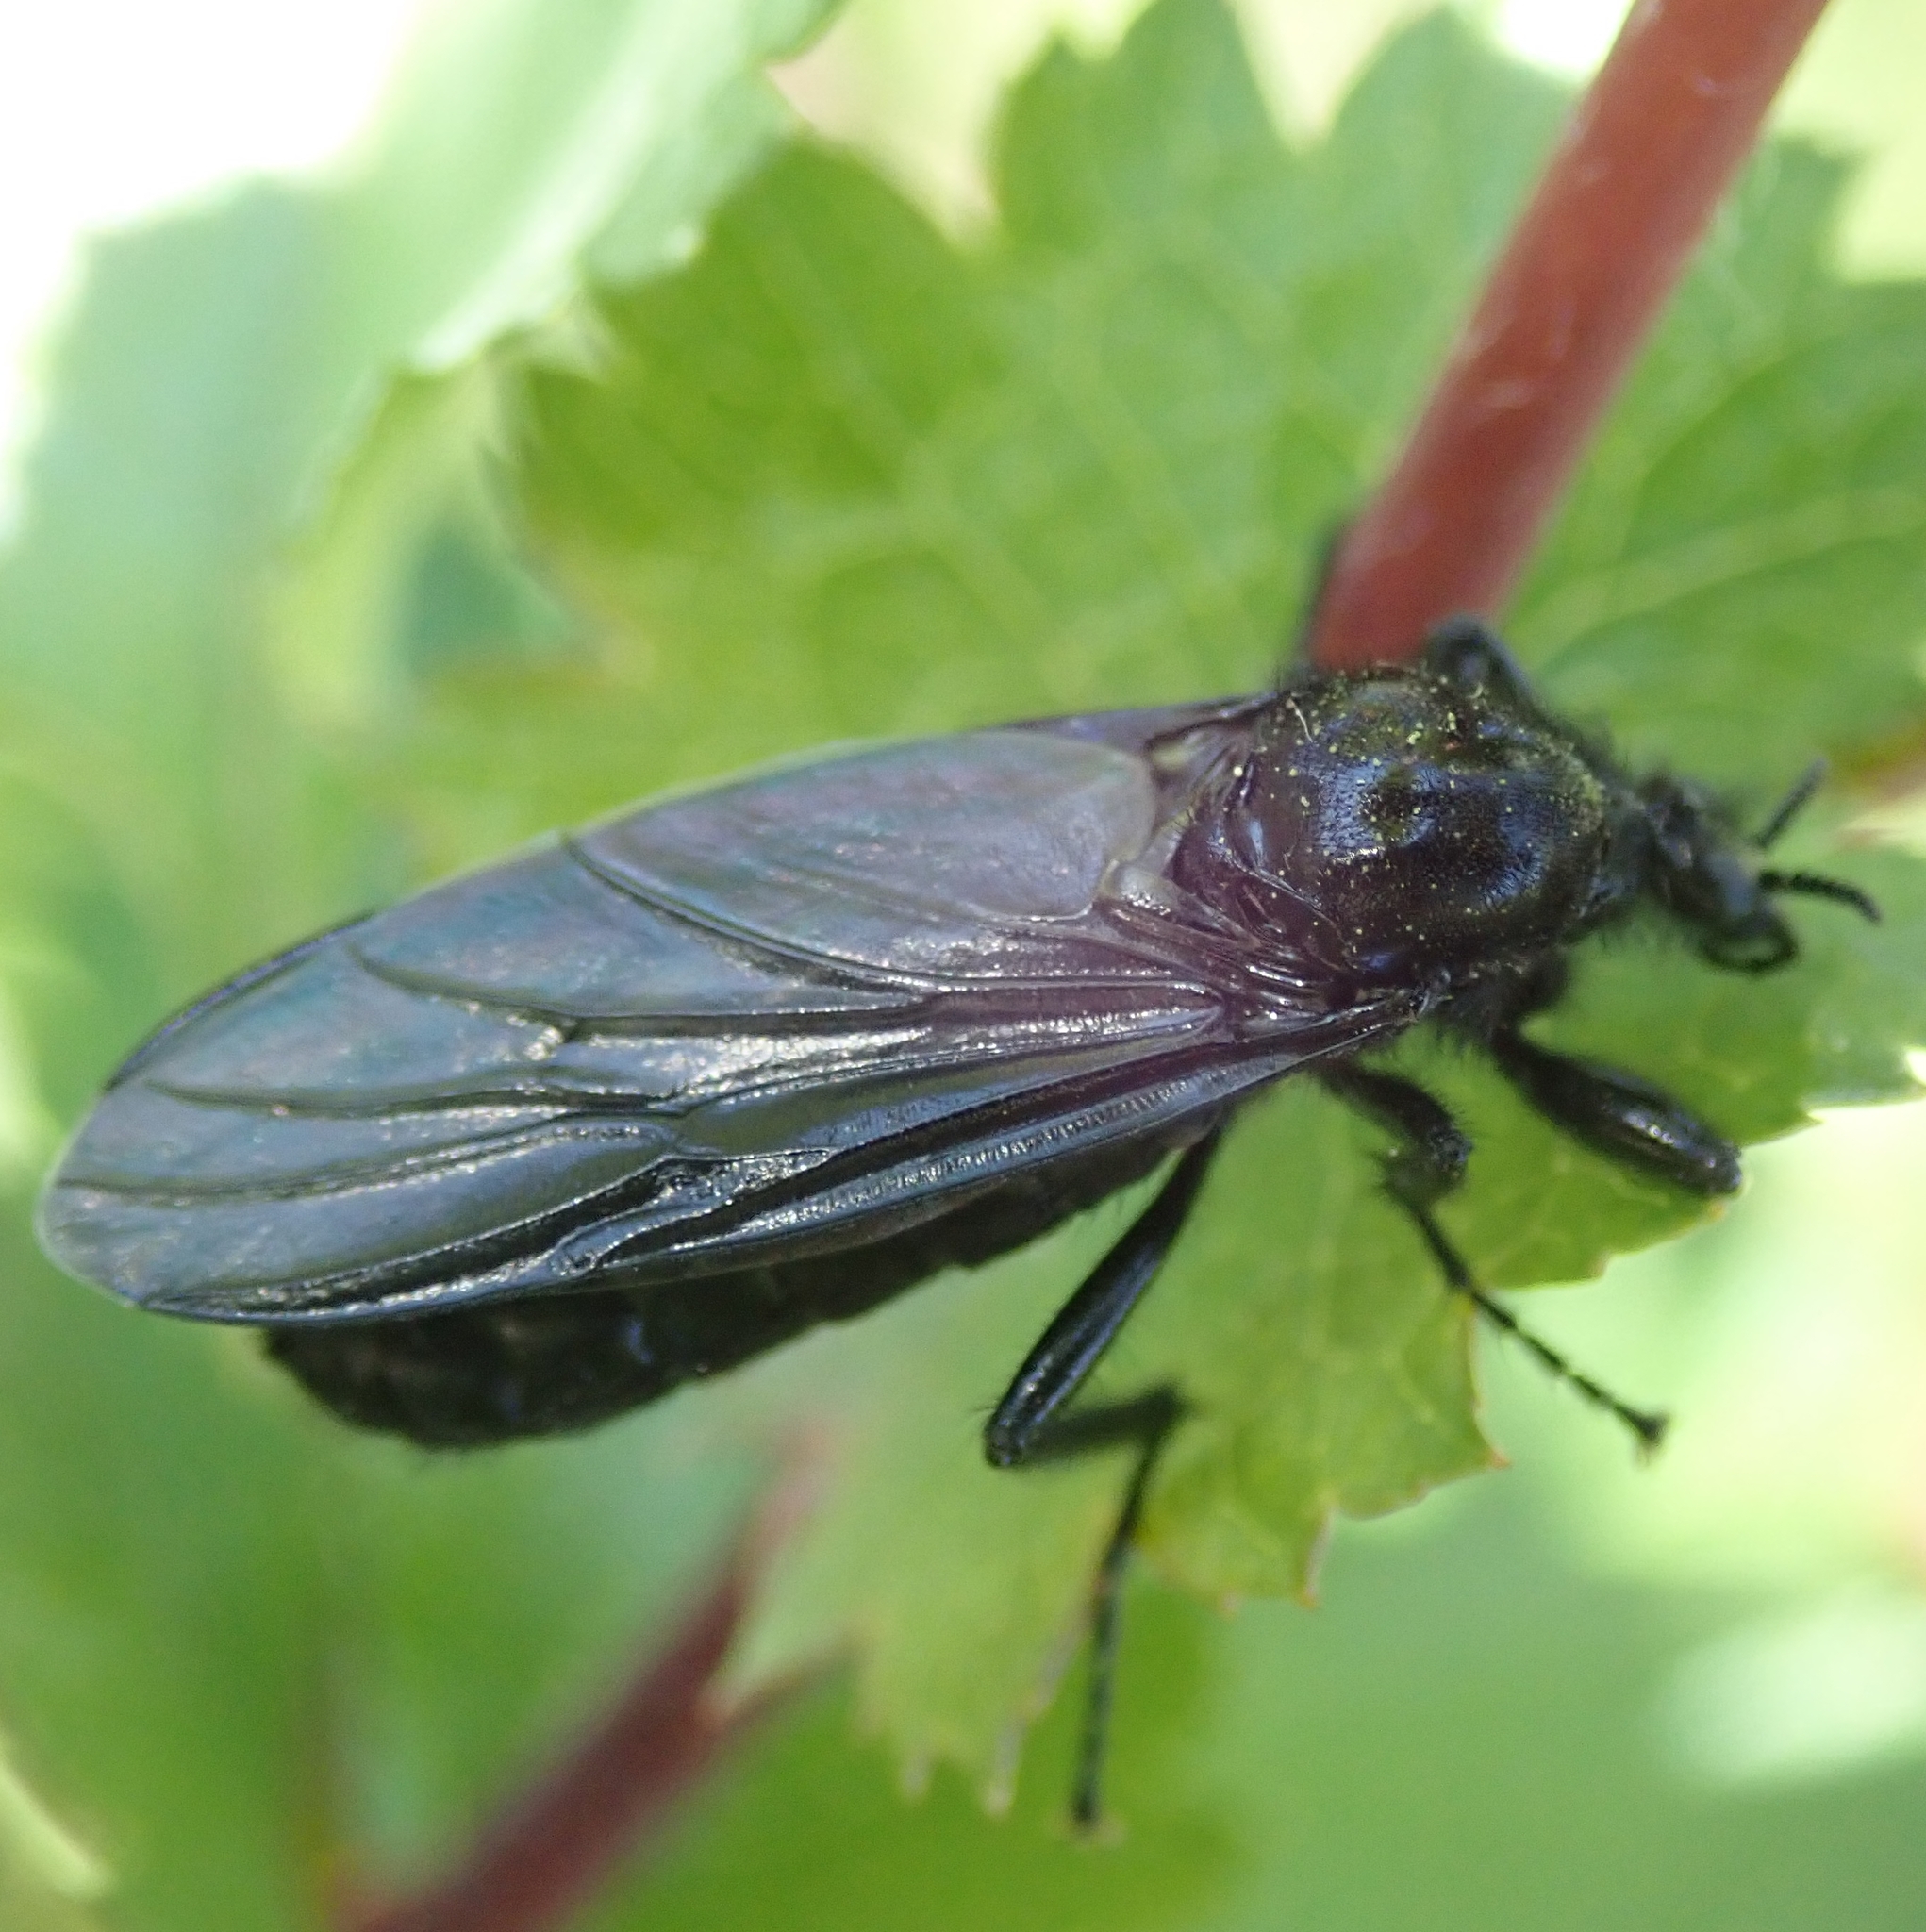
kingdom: Animalia
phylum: Arthropoda
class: Insecta
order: Diptera
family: Bibionidae
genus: Bibio
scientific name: Bibio marci
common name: St marks fly
